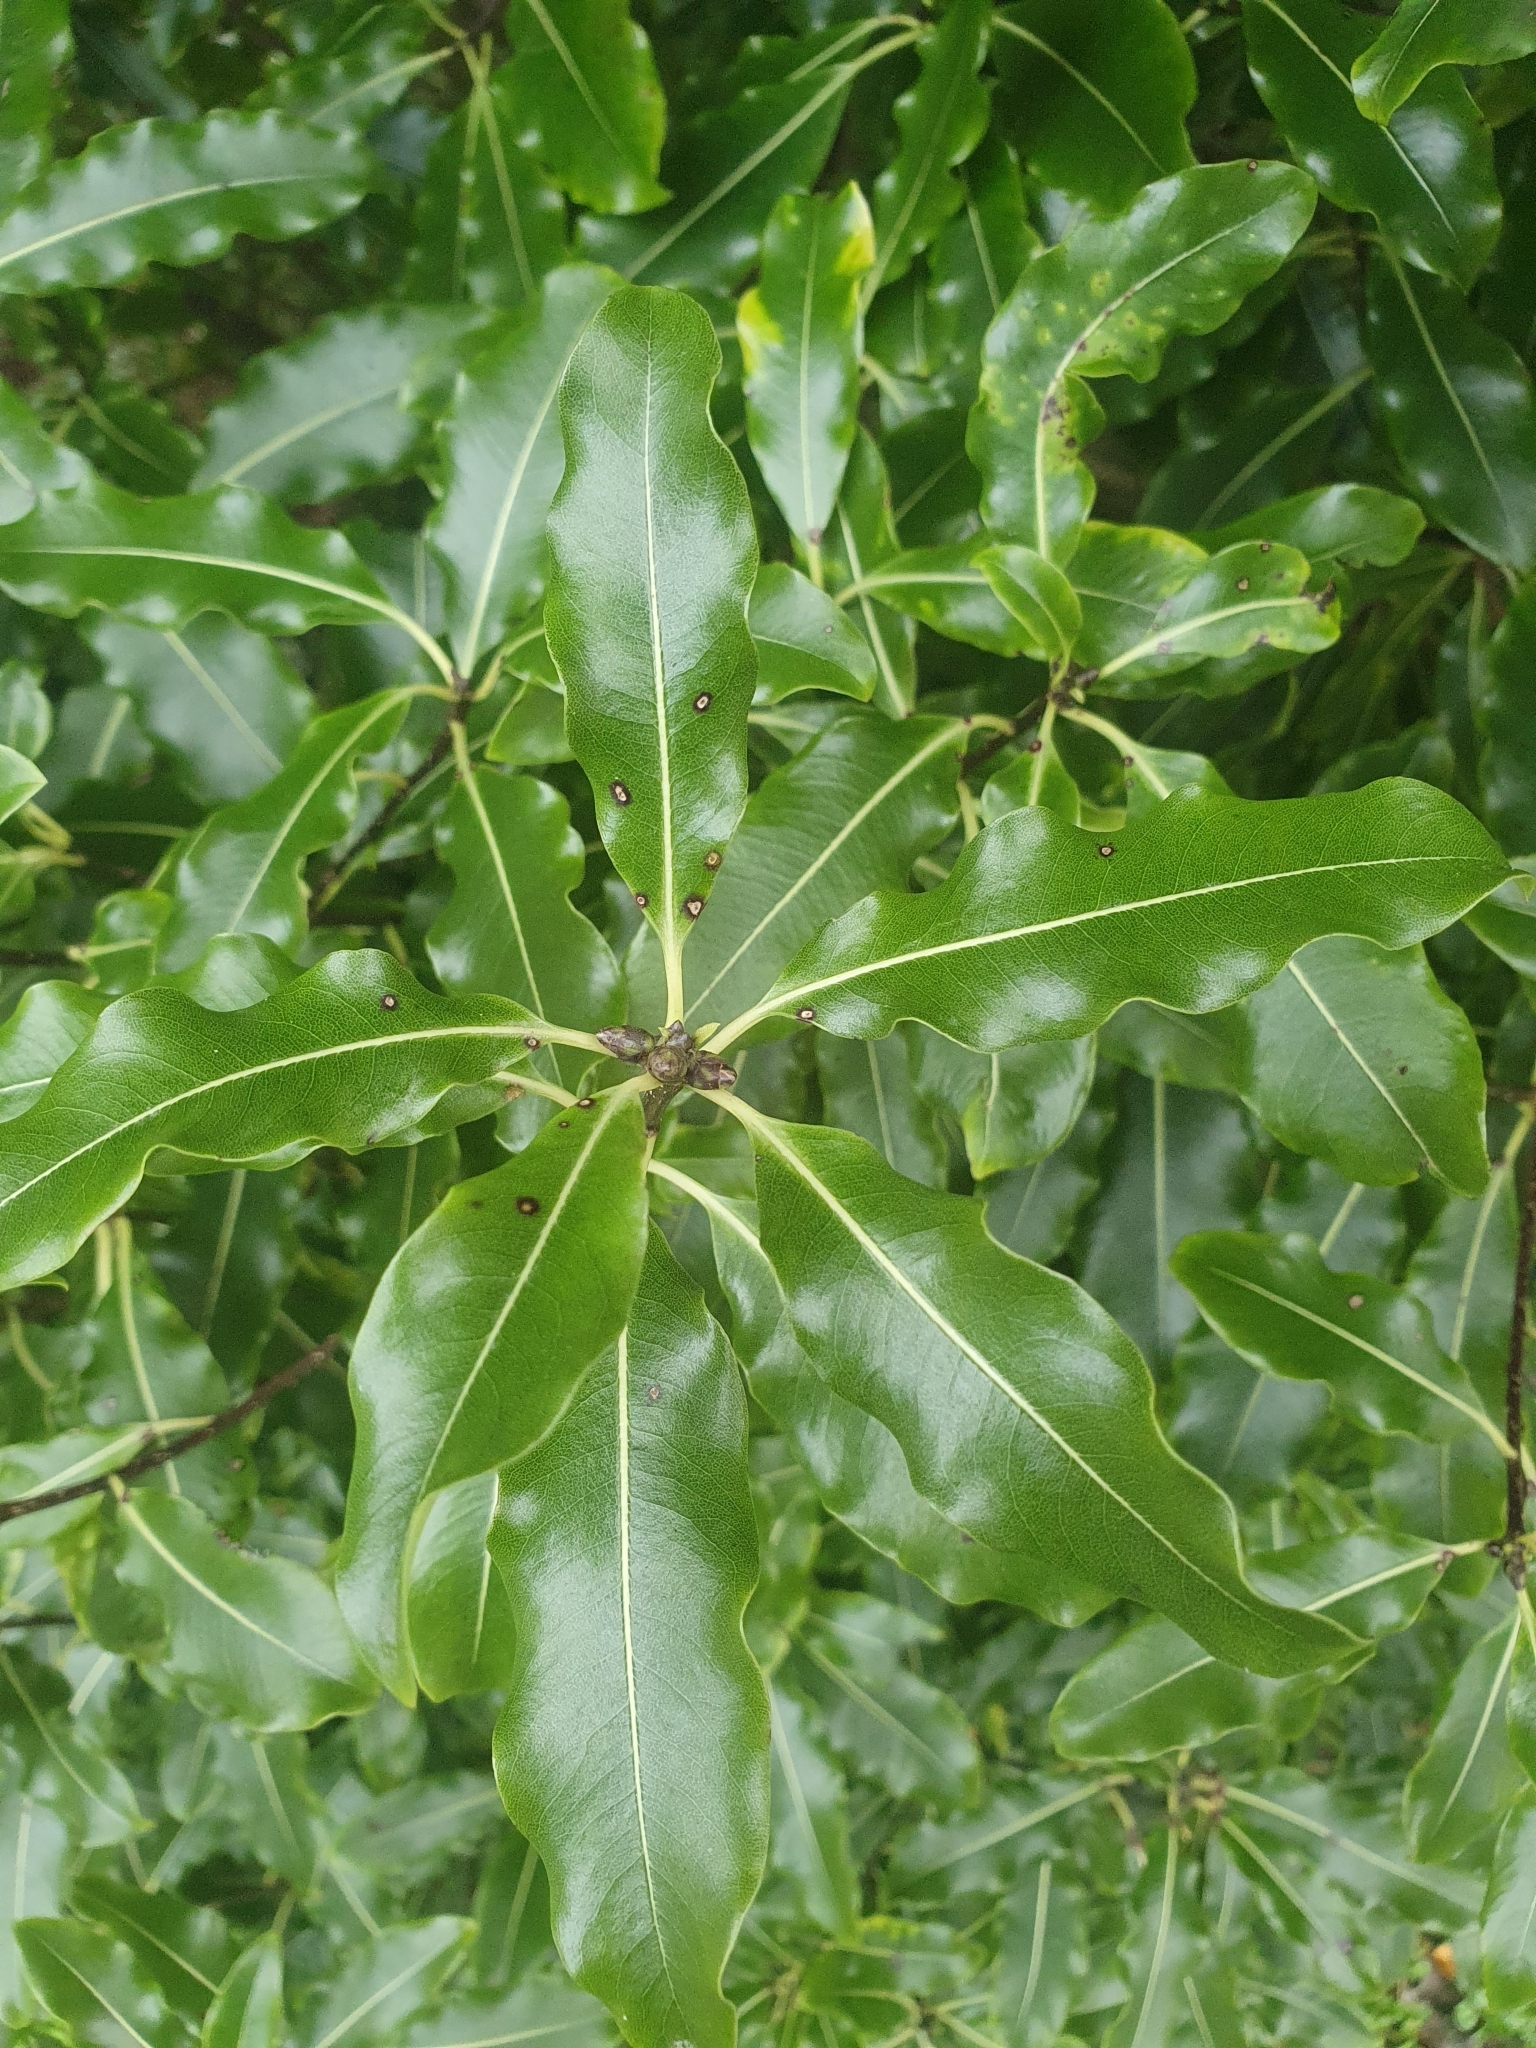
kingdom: Plantae
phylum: Tracheophyta
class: Magnoliopsida
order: Apiales
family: Pittosporaceae
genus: Pittosporum
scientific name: Pittosporum eugenioides
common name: Lemonwood
